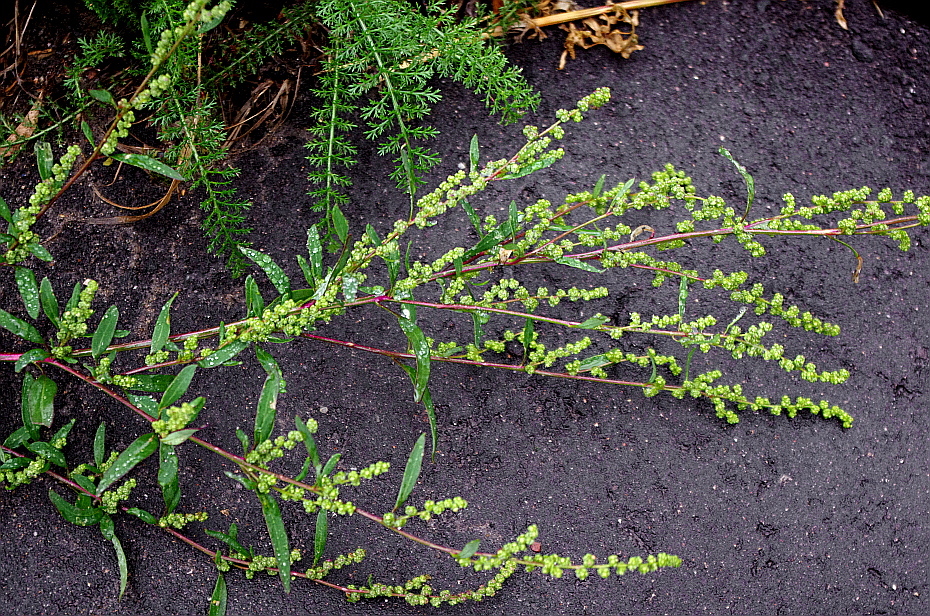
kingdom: Plantae
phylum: Tracheophyta
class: Magnoliopsida
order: Caryophyllales
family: Amaranthaceae
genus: Oxybasis
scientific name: Oxybasis glauca
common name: Glaucous goosefoot
